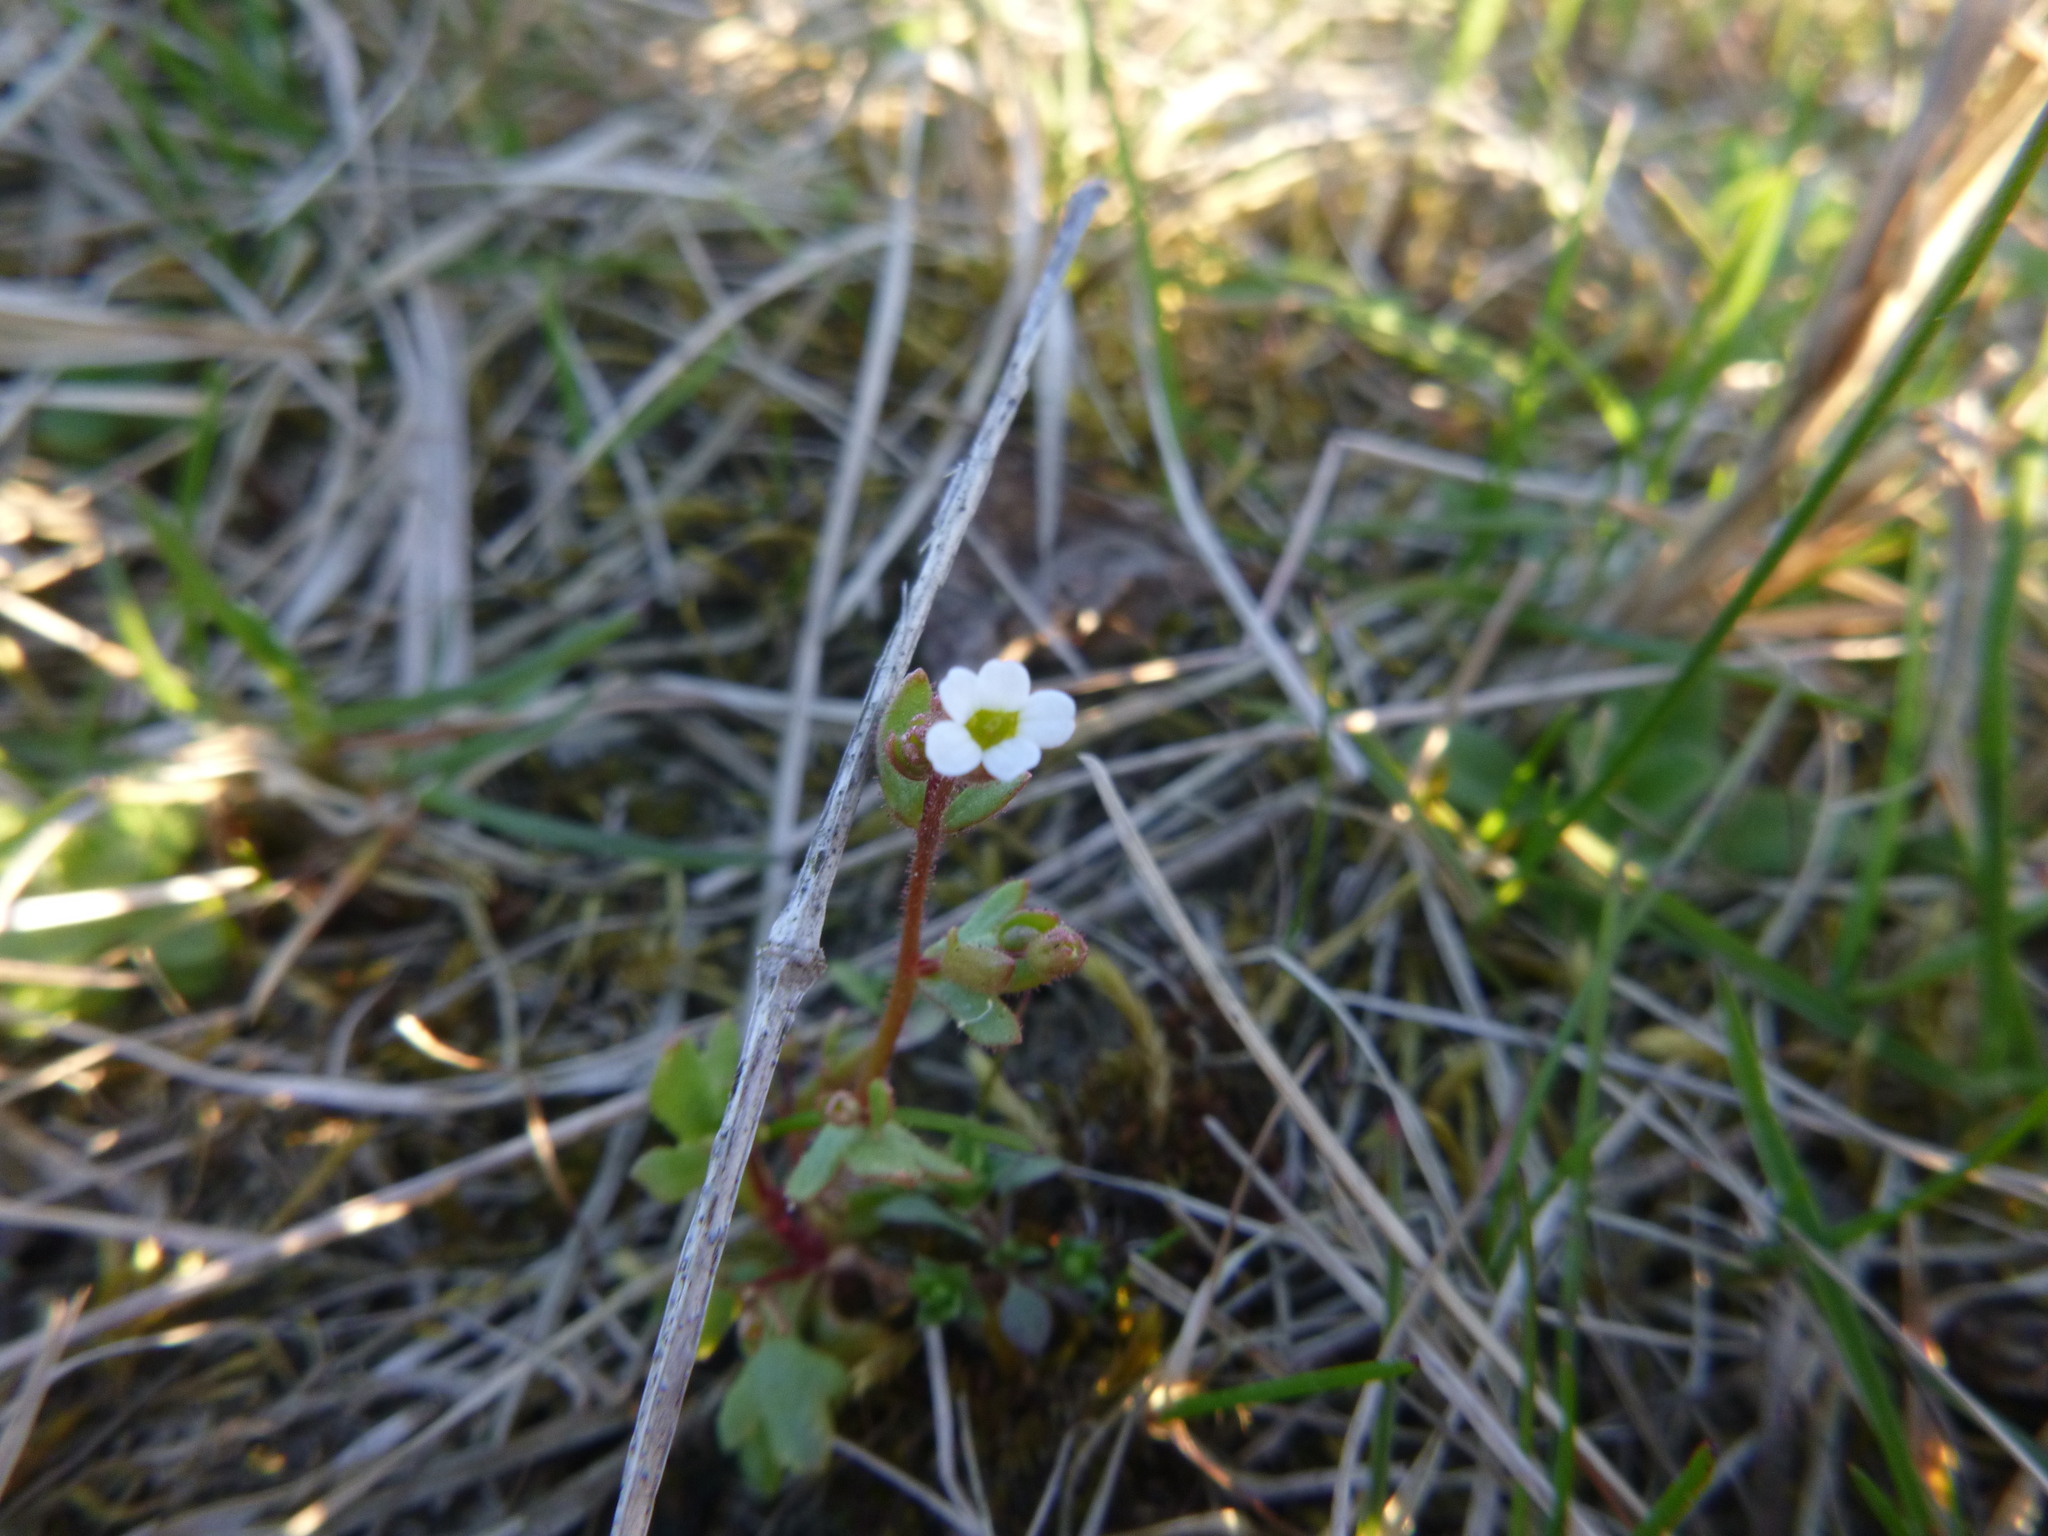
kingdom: Plantae
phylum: Tracheophyta
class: Magnoliopsida
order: Saxifragales
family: Saxifragaceae
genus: Saxifraga
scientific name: Saxifraga tridactylites
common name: Rue-leaved saxifrage
